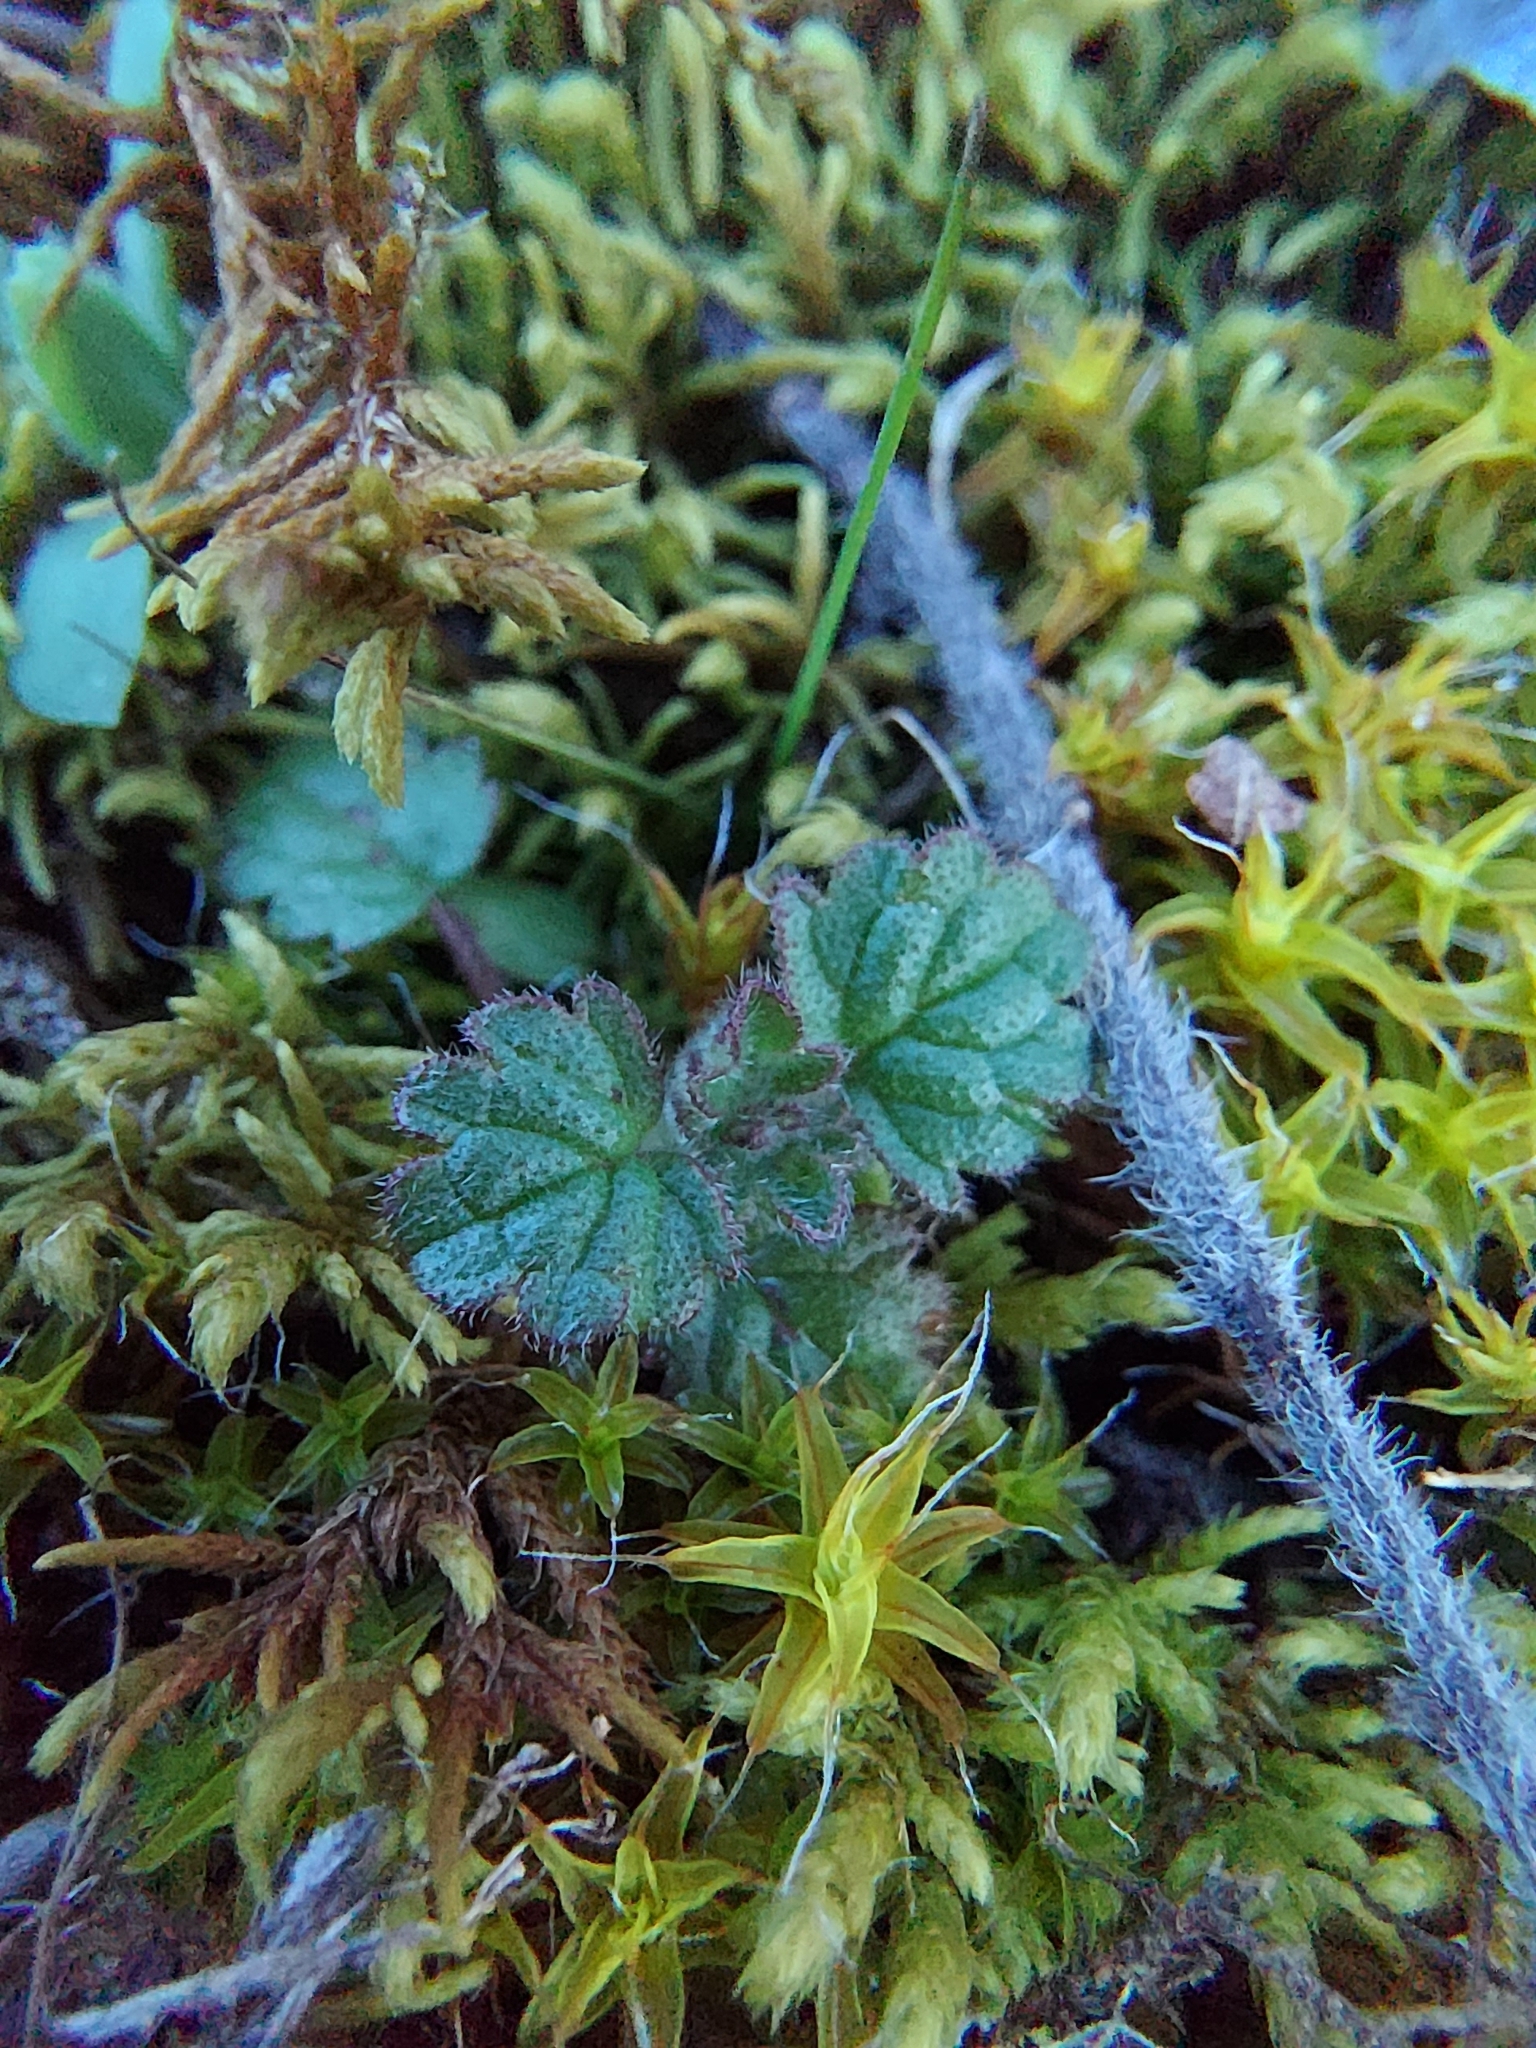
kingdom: Plantae
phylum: Tracheophyta
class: Magnoliopsida
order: Lamiales
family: Lamiaceae
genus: Lamium
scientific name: Lamium amplexicaule
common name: Henbit dead-nettle
